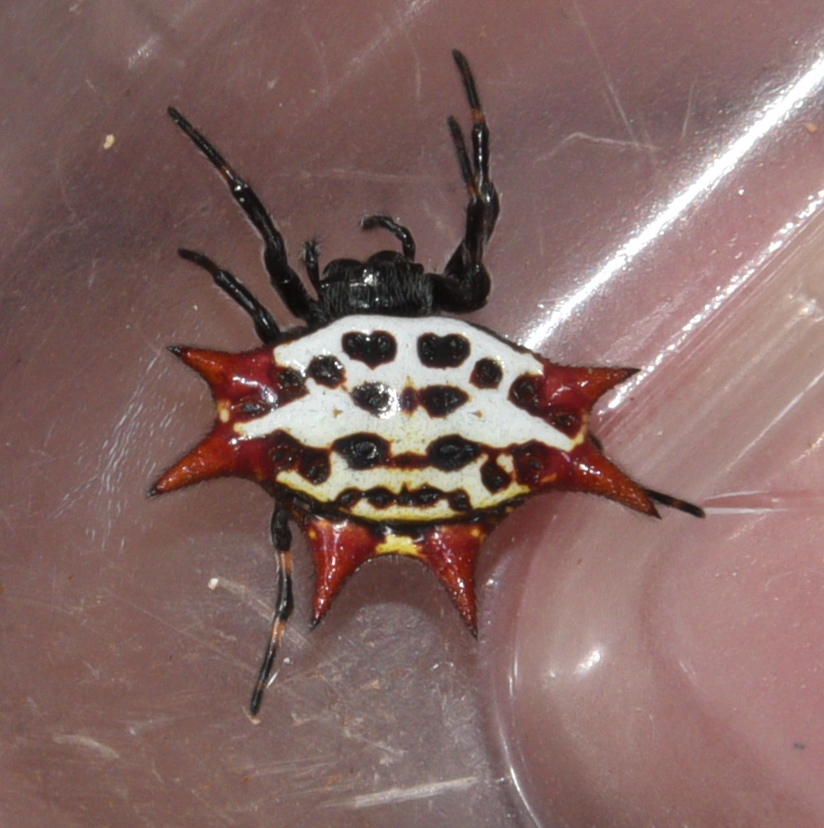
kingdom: Animalia
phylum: Arthropoda
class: Arachnida
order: Araneae
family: Araneidae
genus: Gasteracantha
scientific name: Gasteracantha cancriformis
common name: Orb weavers
